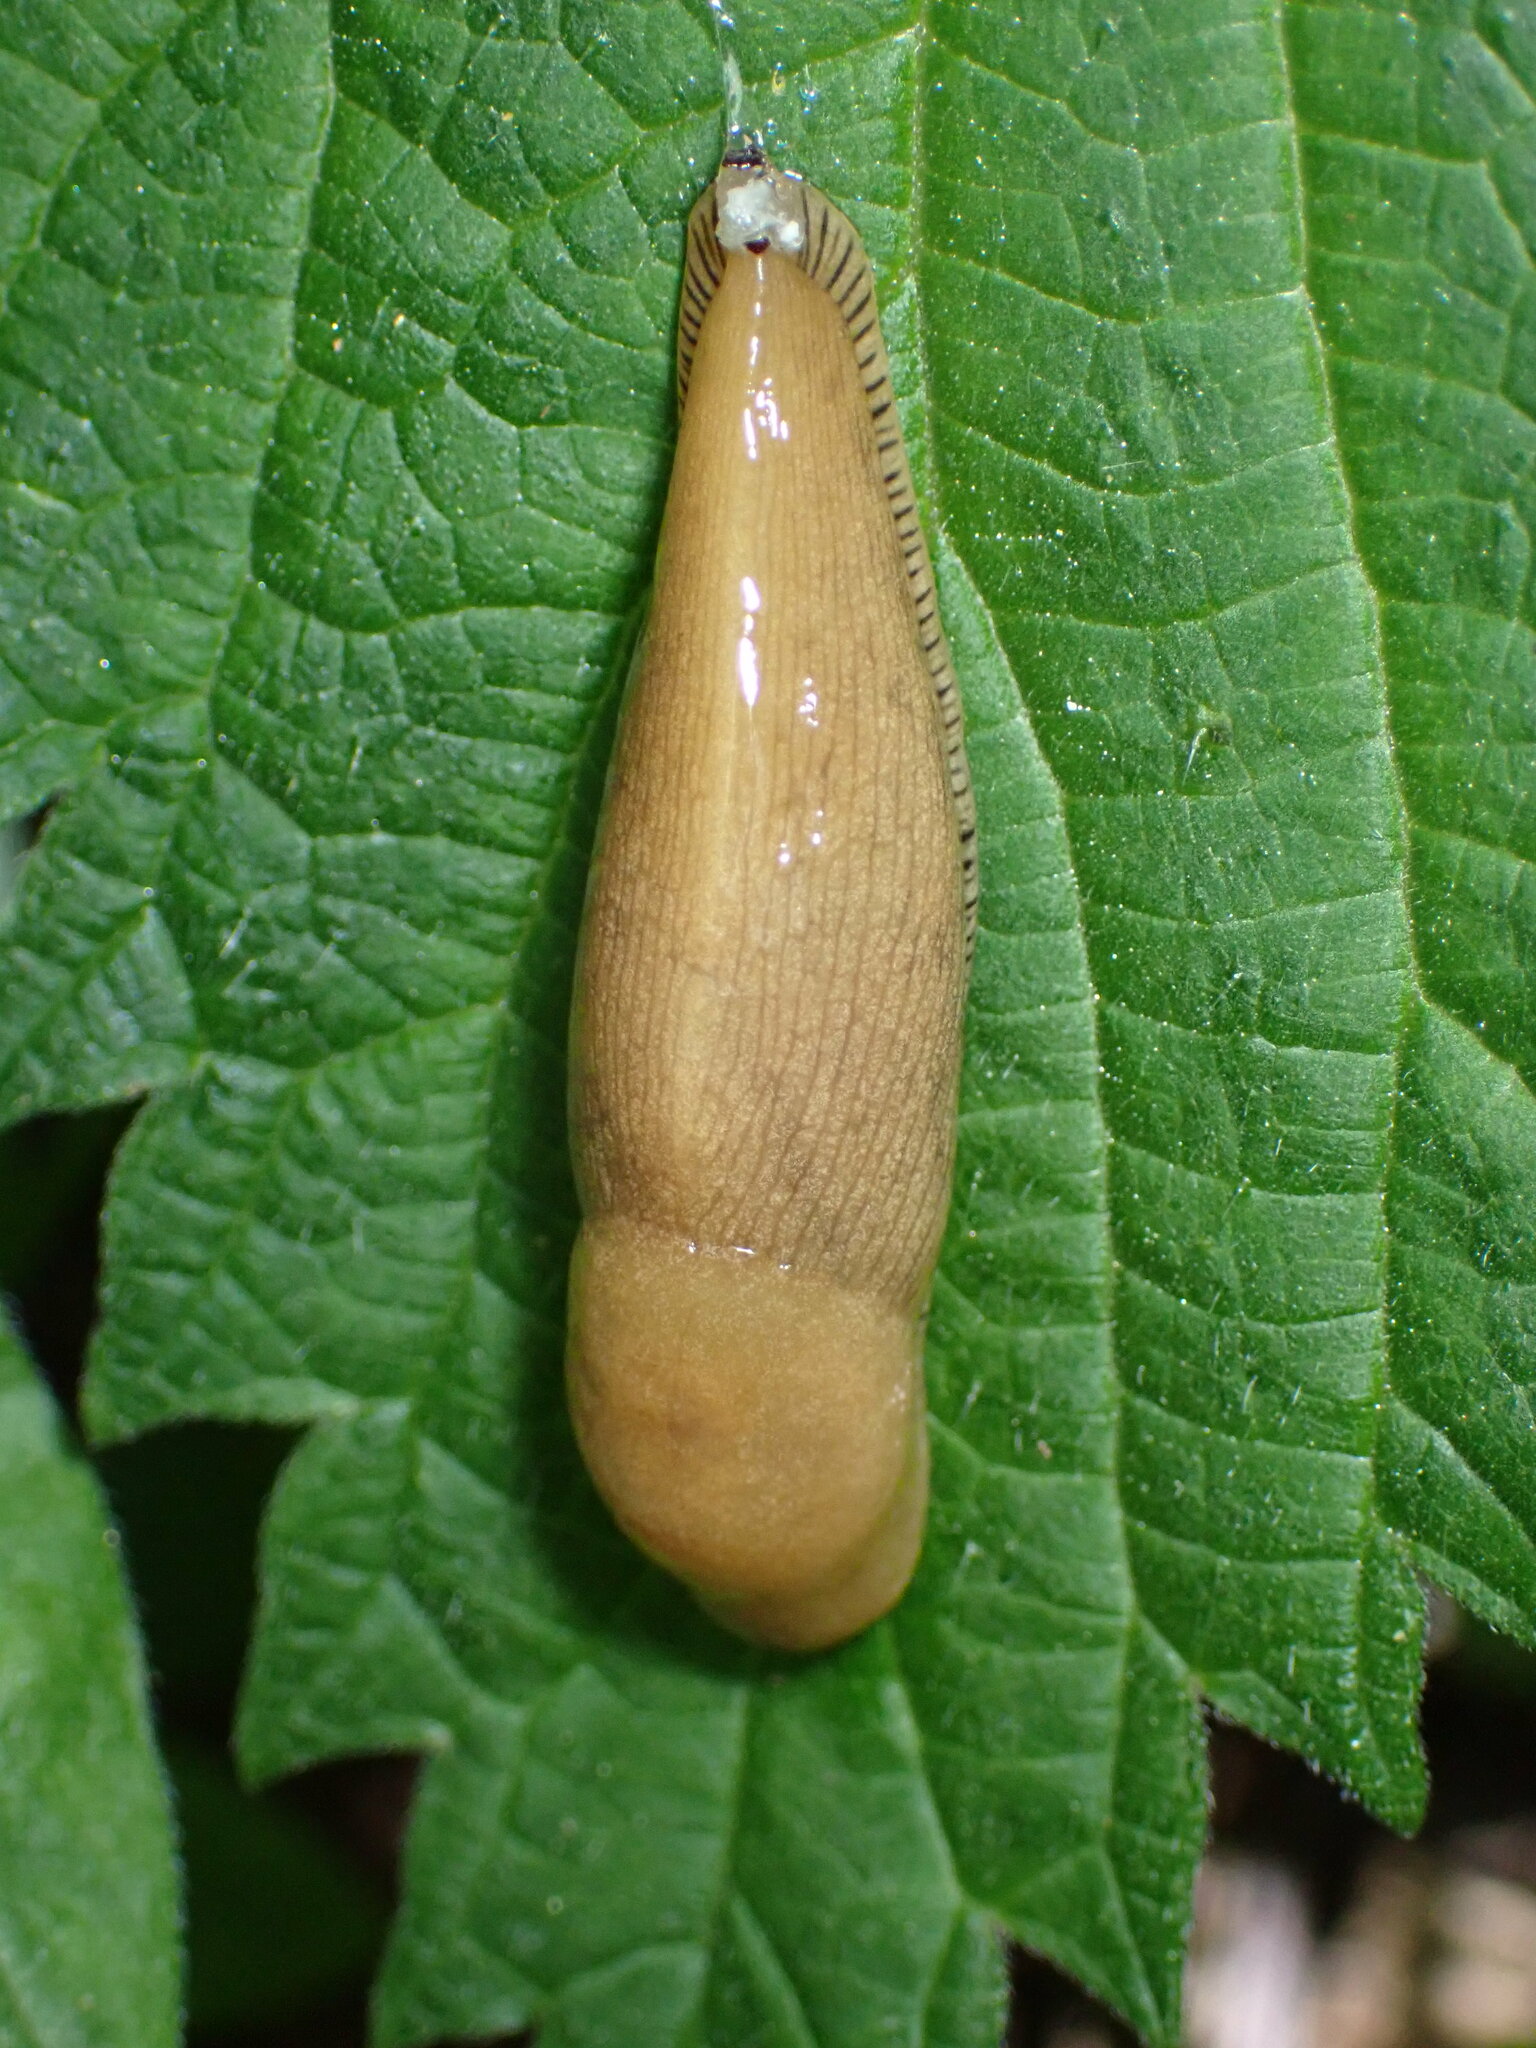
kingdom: Animalia
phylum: Mollusca
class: Gastropoda
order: Stylommatophora
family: Ariolimacidae
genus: Ariolimax
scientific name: Ariolimax buttoni
